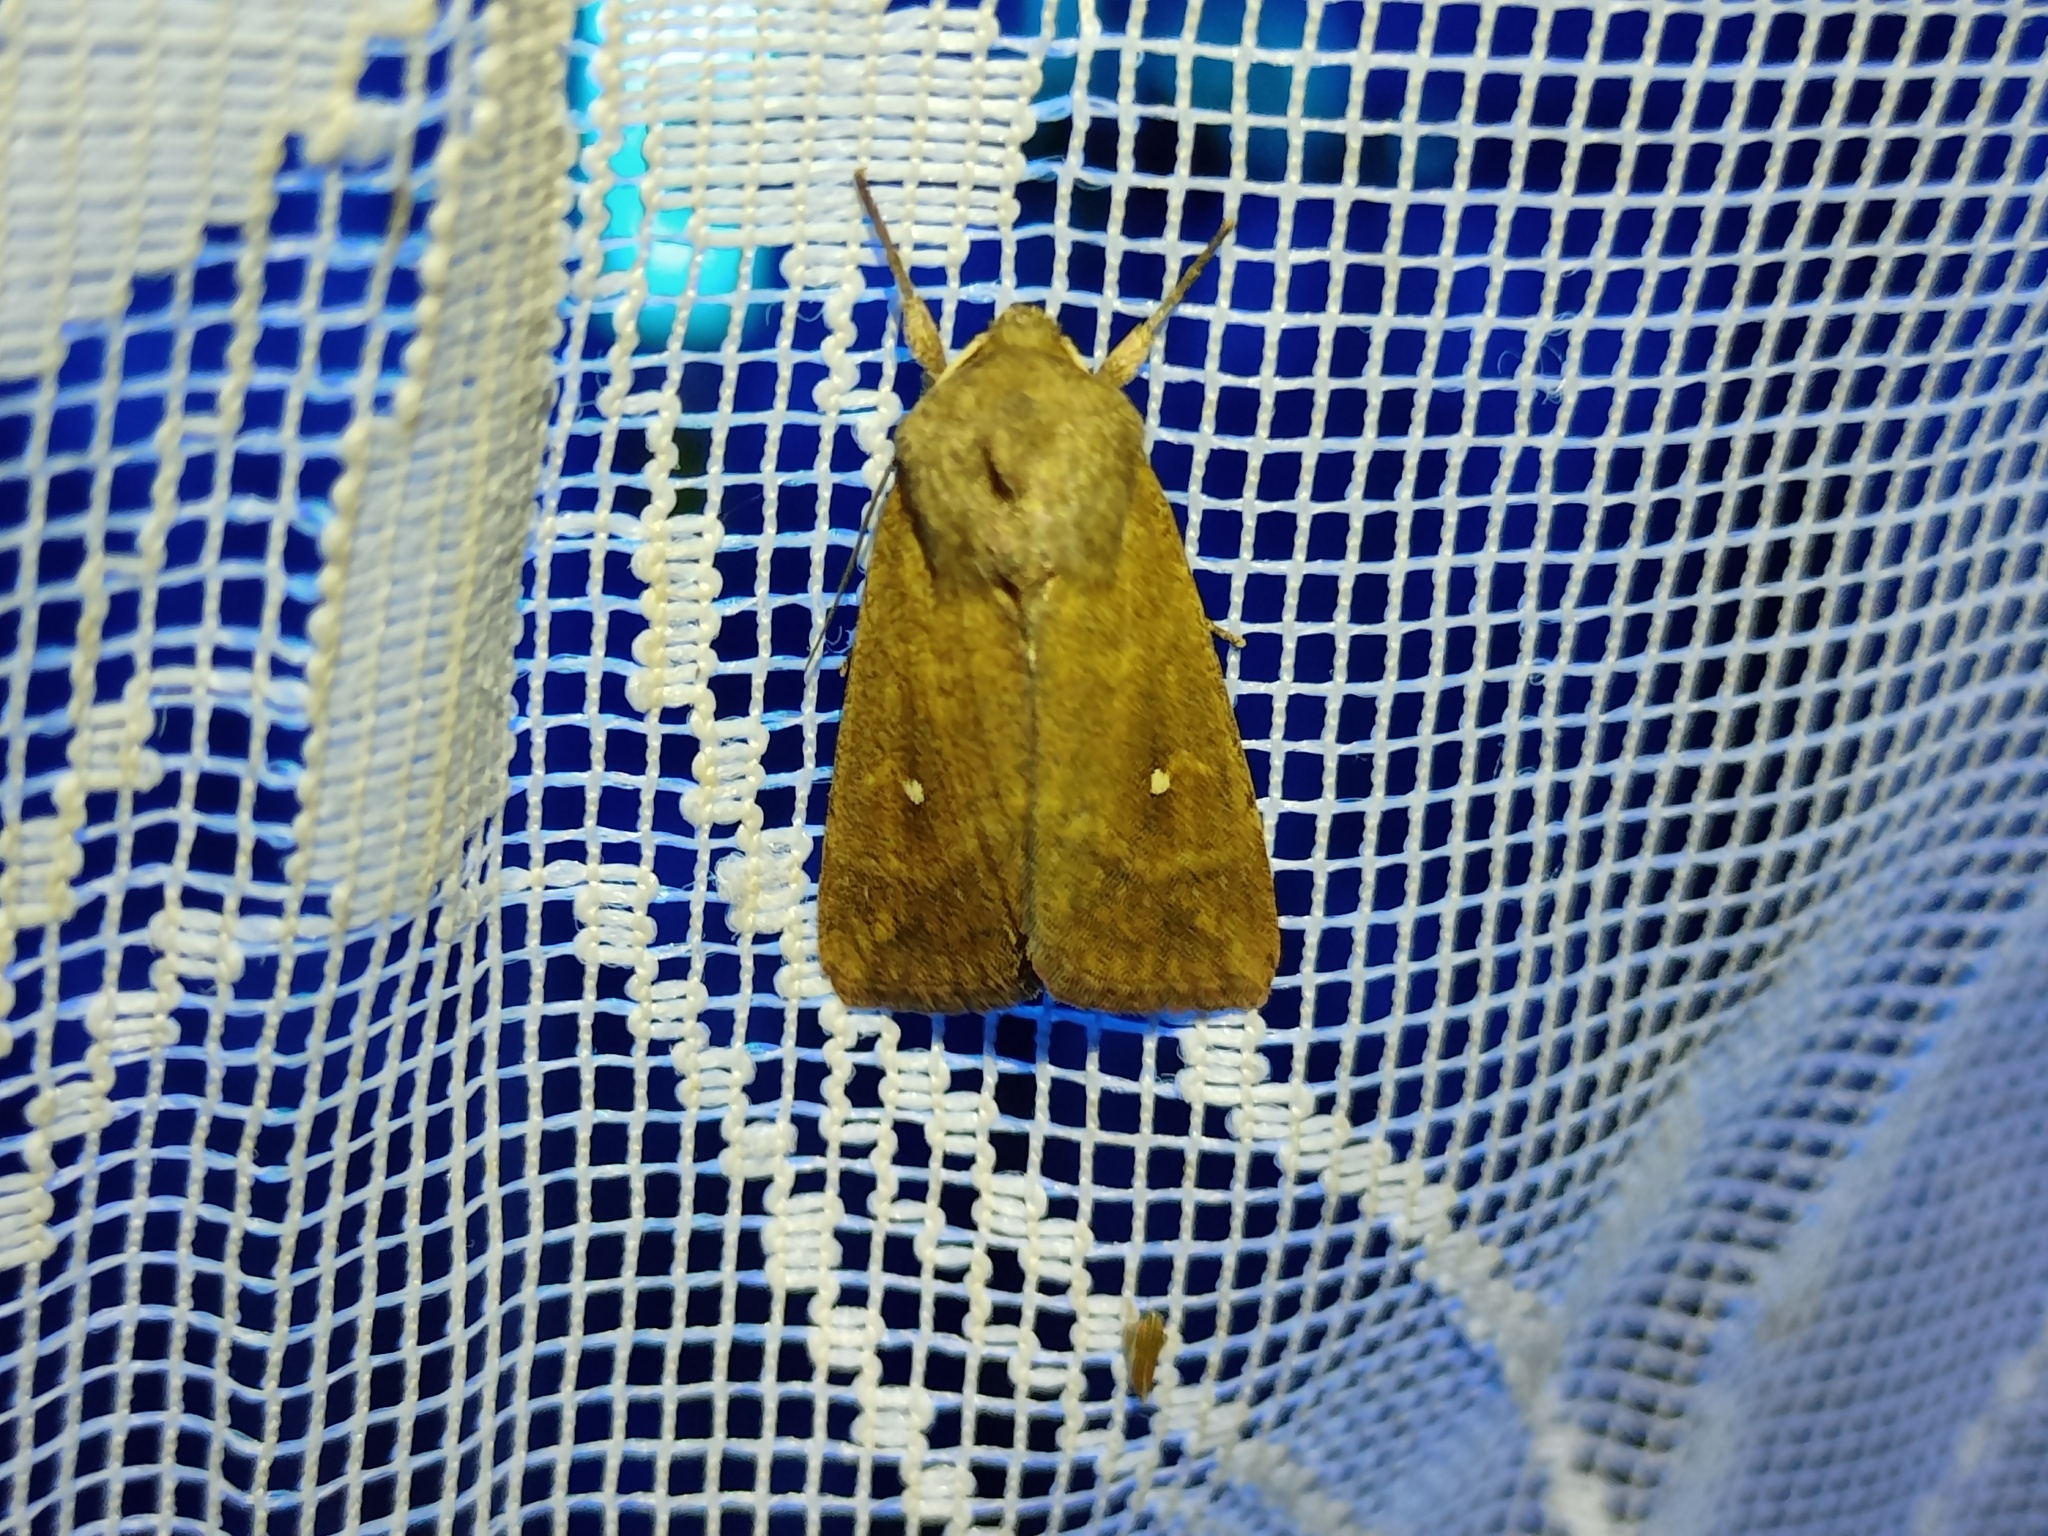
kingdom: Animalia
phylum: Arthropoda
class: Insecta
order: Lepidoptera
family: Noctuidae
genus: Mythimna
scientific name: Mythimna albipuncta
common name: White-point
